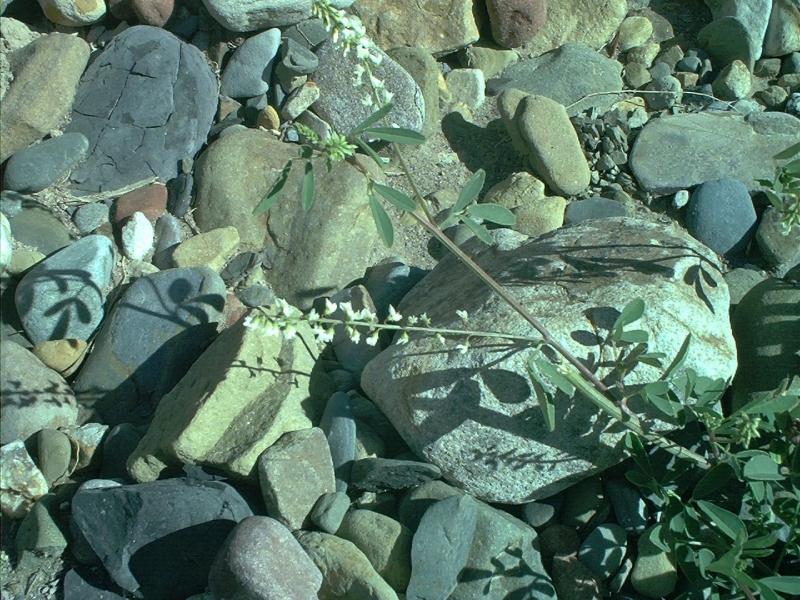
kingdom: Plantae
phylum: Tracheophyta
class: Magnoliopsida
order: Fabales
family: Fabaceae
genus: Melilotus
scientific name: Melilotus albus
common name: White melilot
